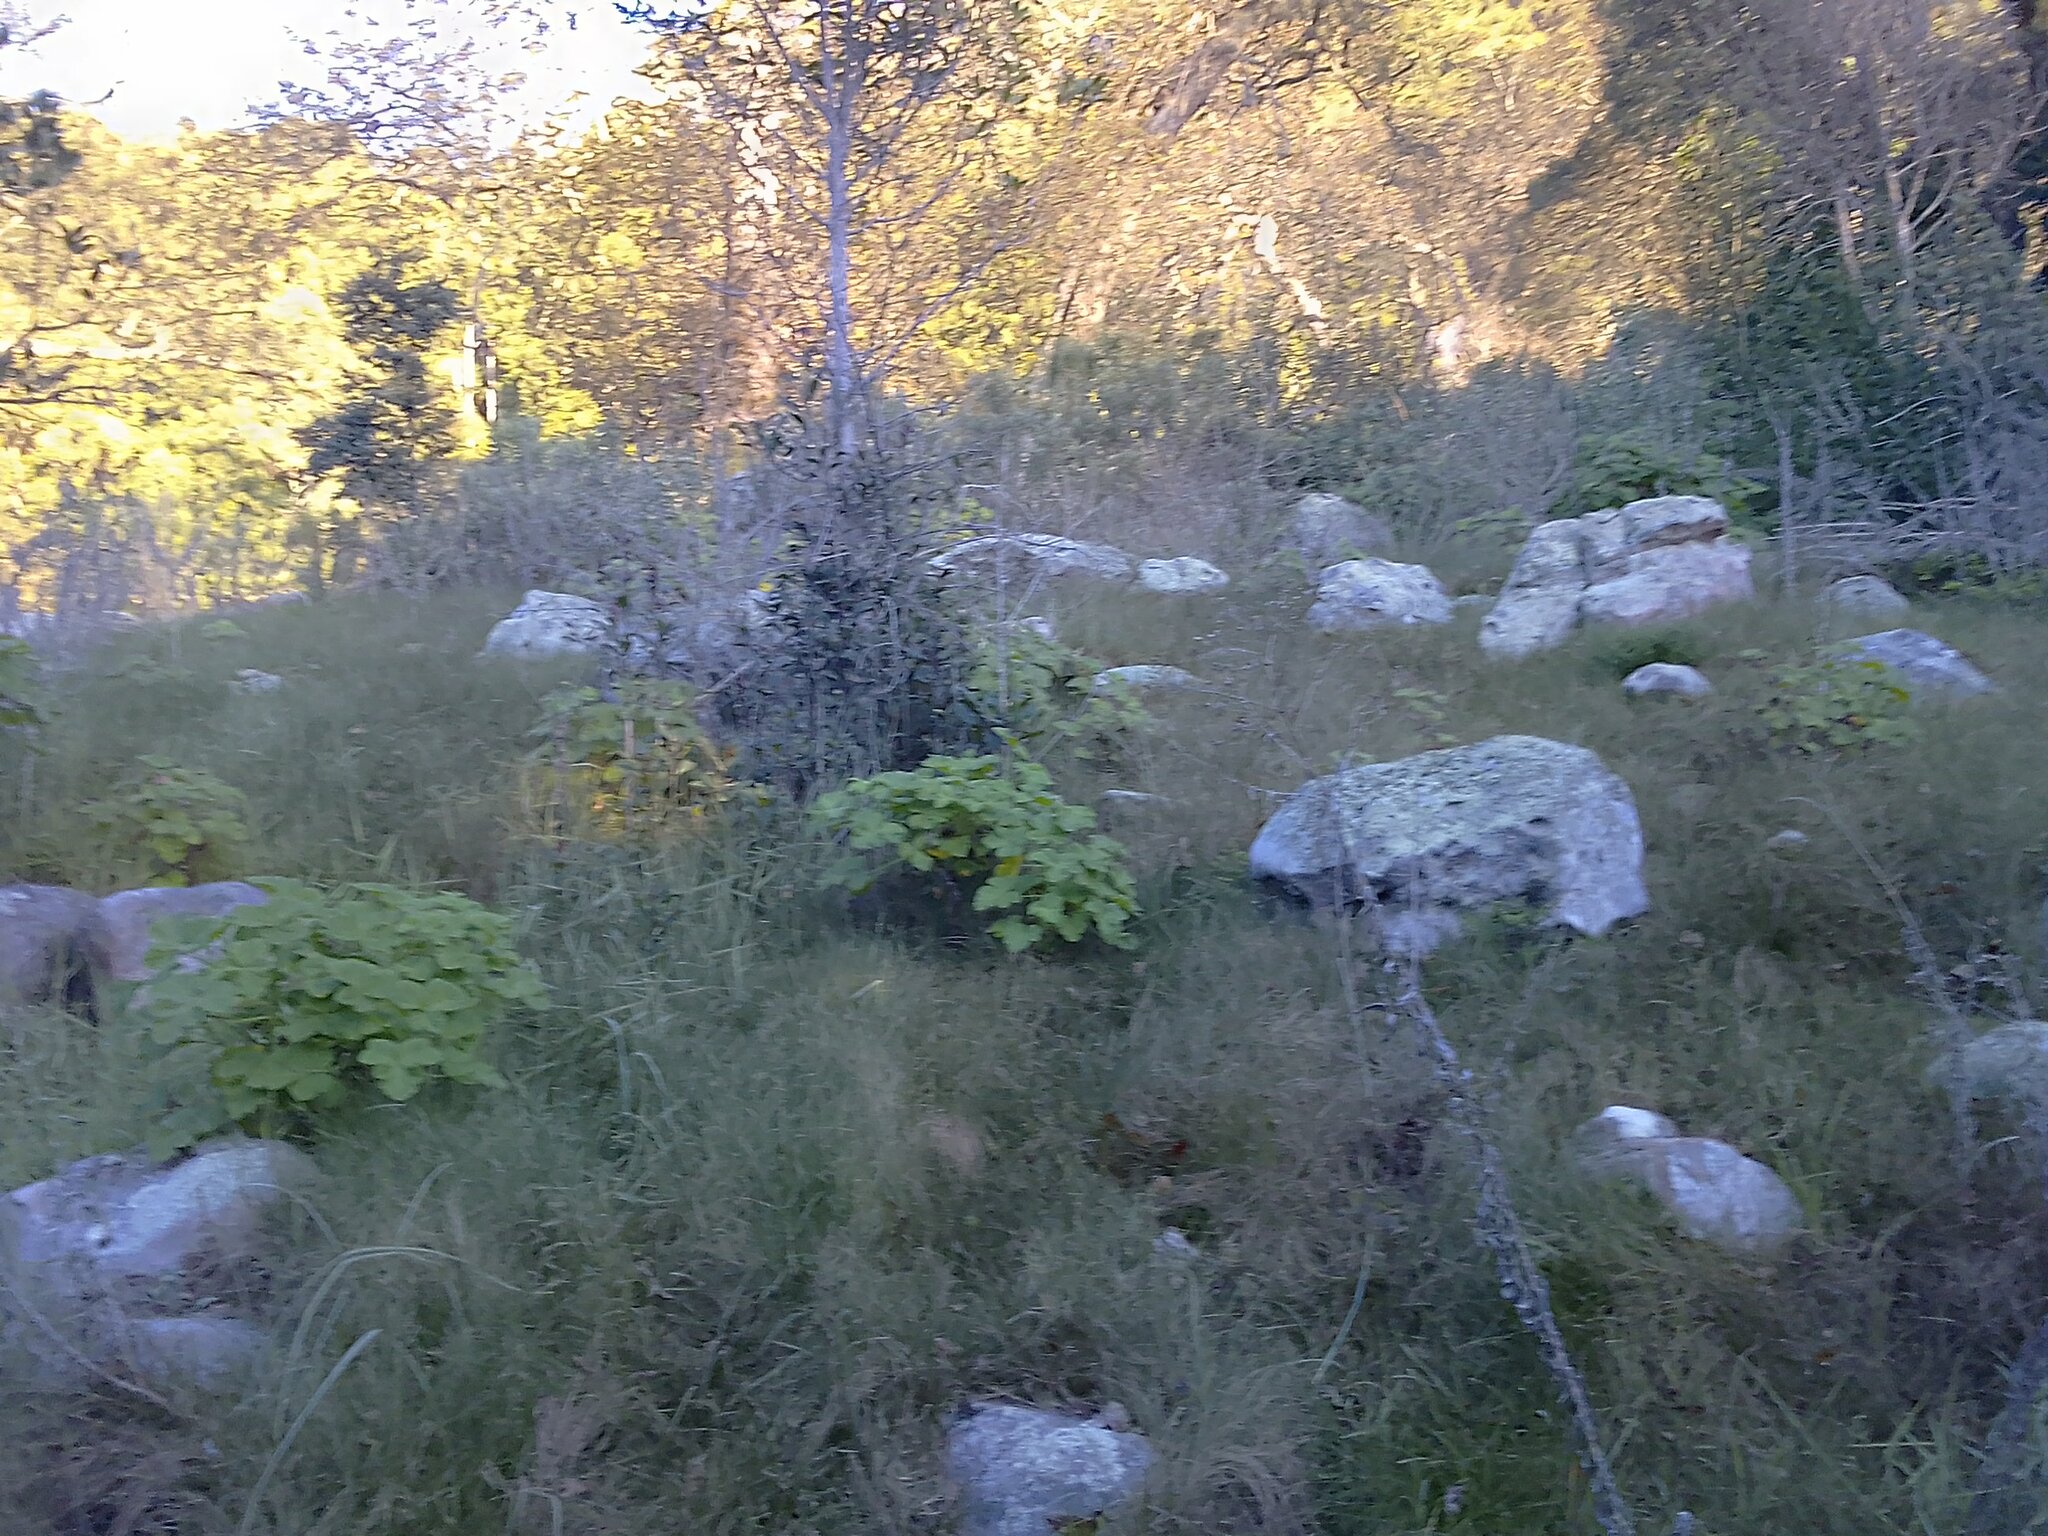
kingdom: Plantae
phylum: Tracheophyta
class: Magnoliopsida
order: Geraniales
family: Geraniaceae
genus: Pelargonium
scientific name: Pelargonium vitifolium
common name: Grapeleaf geranium
